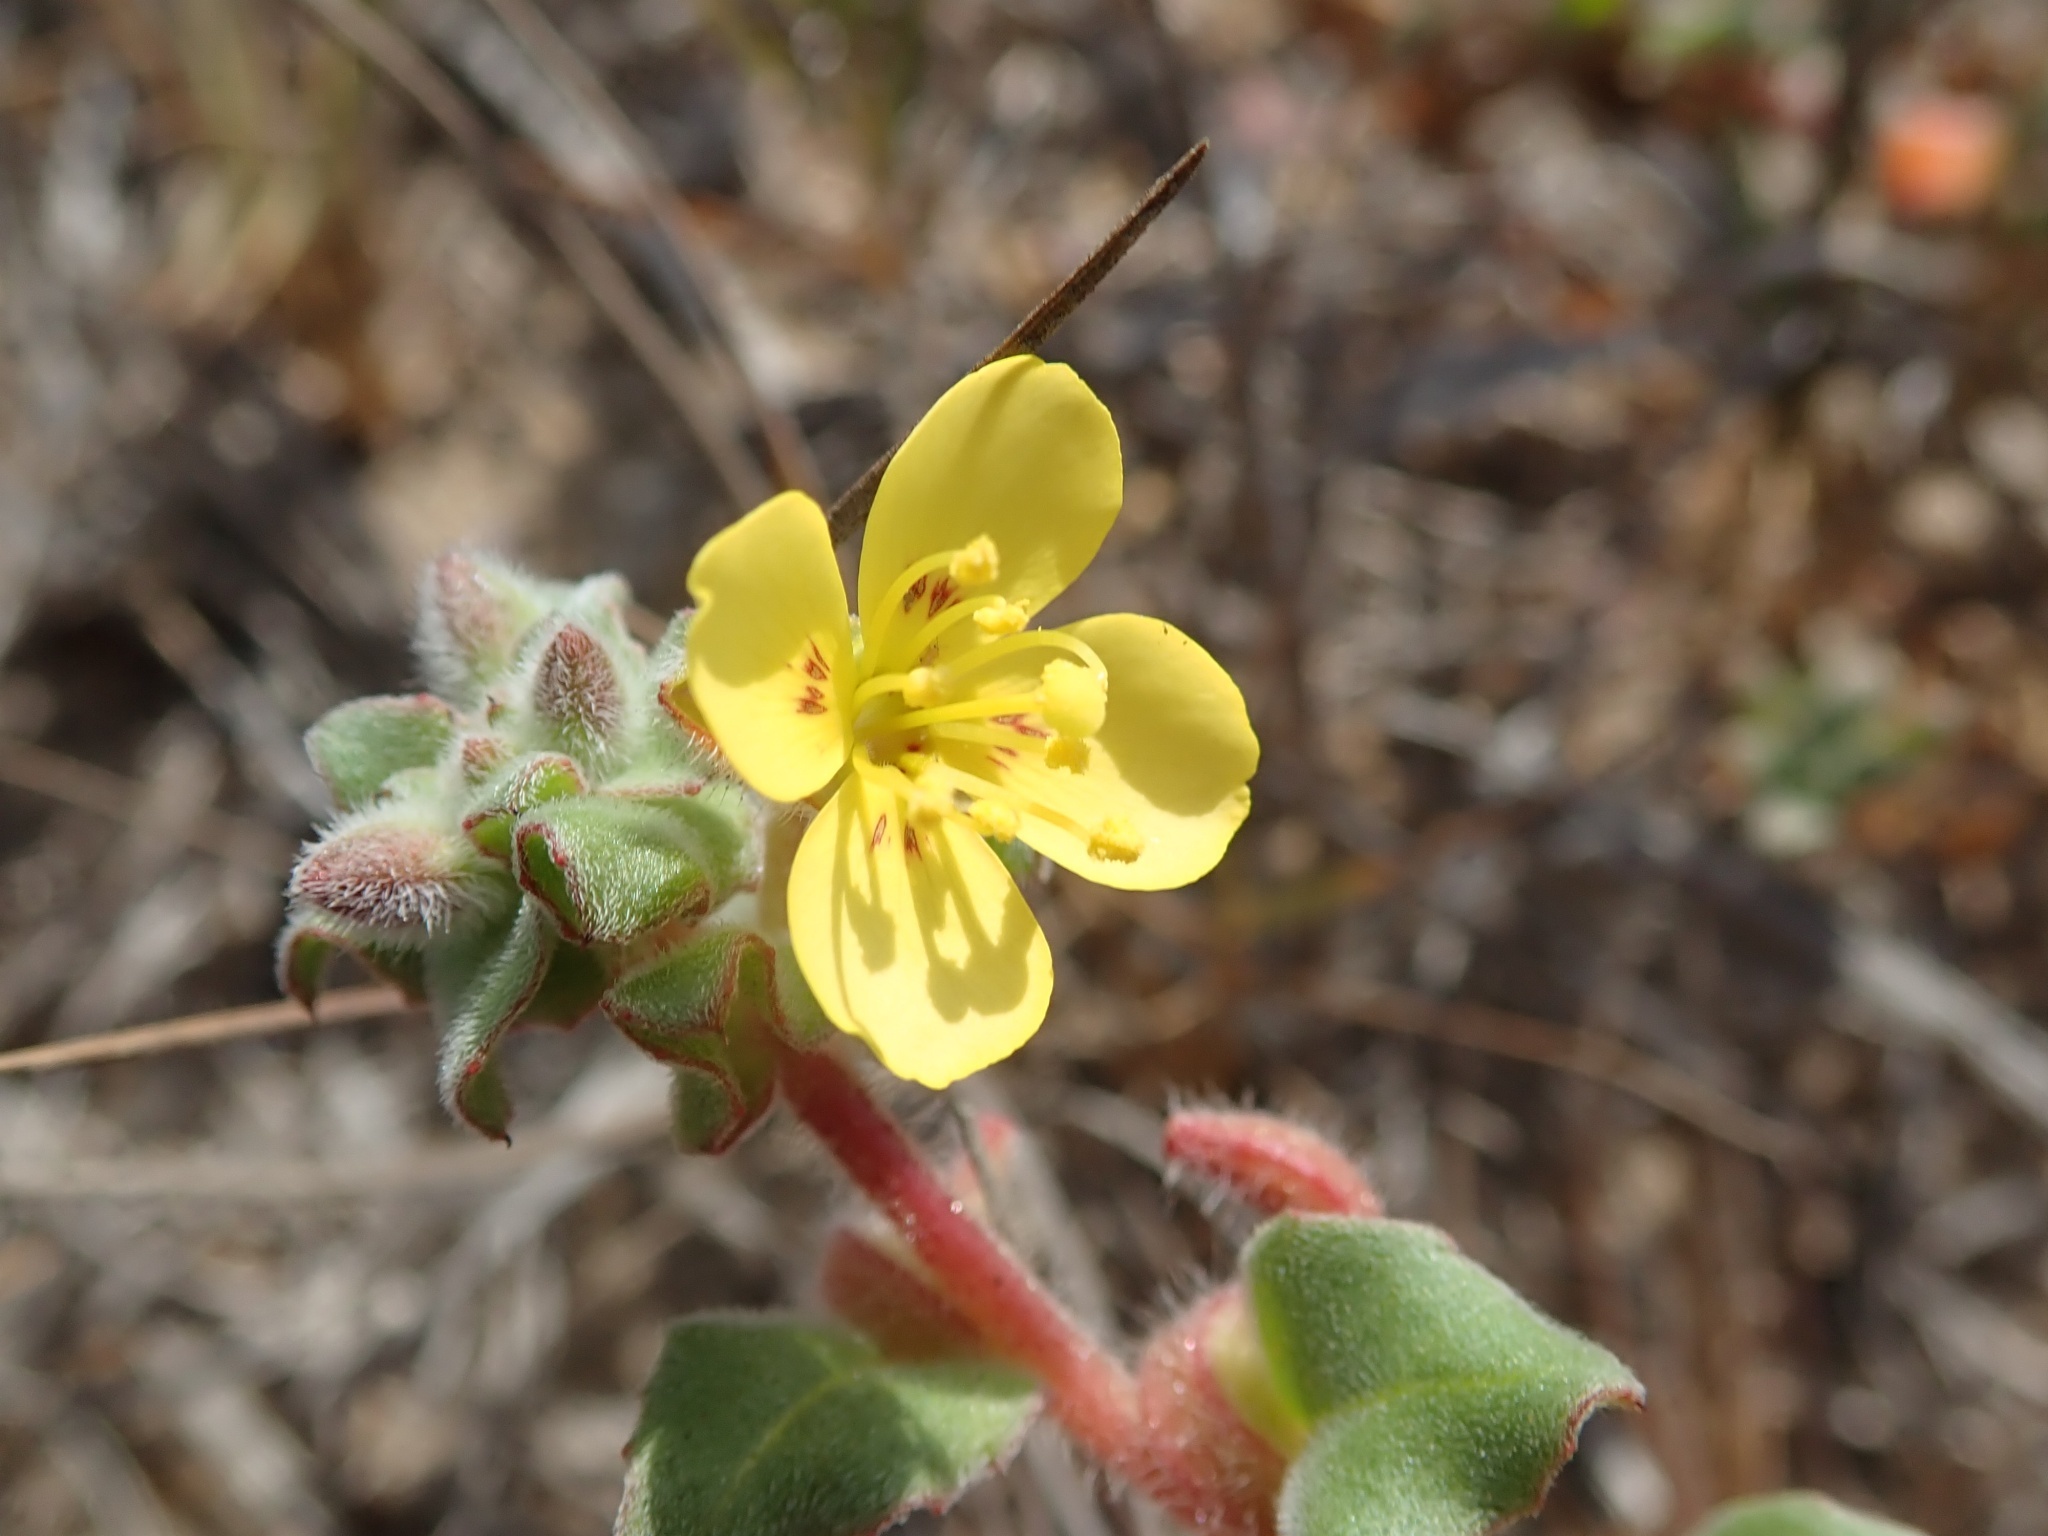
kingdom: Plantae
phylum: Tracheophyta
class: Magnoliopsida
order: Myrtales
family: Onagraceae
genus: Camissoniopsis
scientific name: Camissoniopsis cheiranthifolia
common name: Beach suncup
